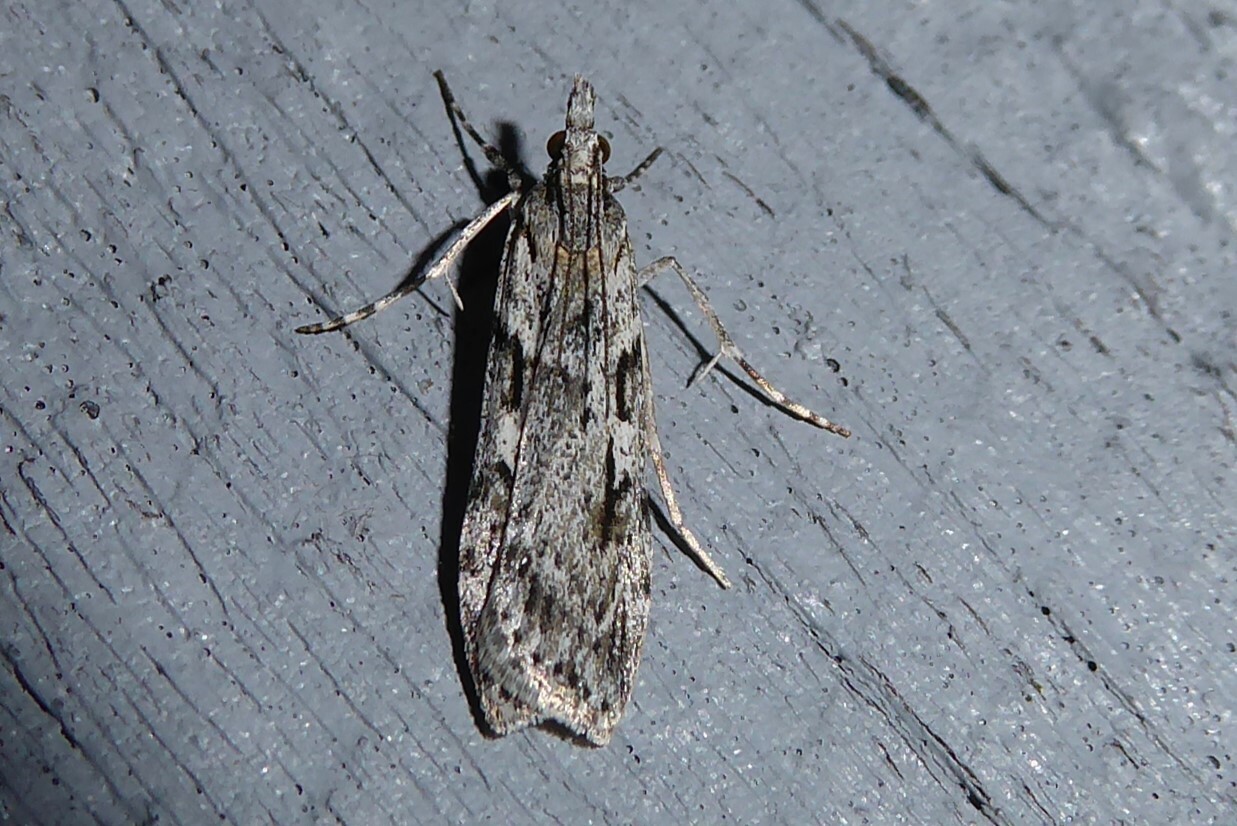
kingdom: Animalia
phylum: Arthropoda
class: Insecta
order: Lepidoptera
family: Crambidae
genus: Scoparia
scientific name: Scoparia halopis
